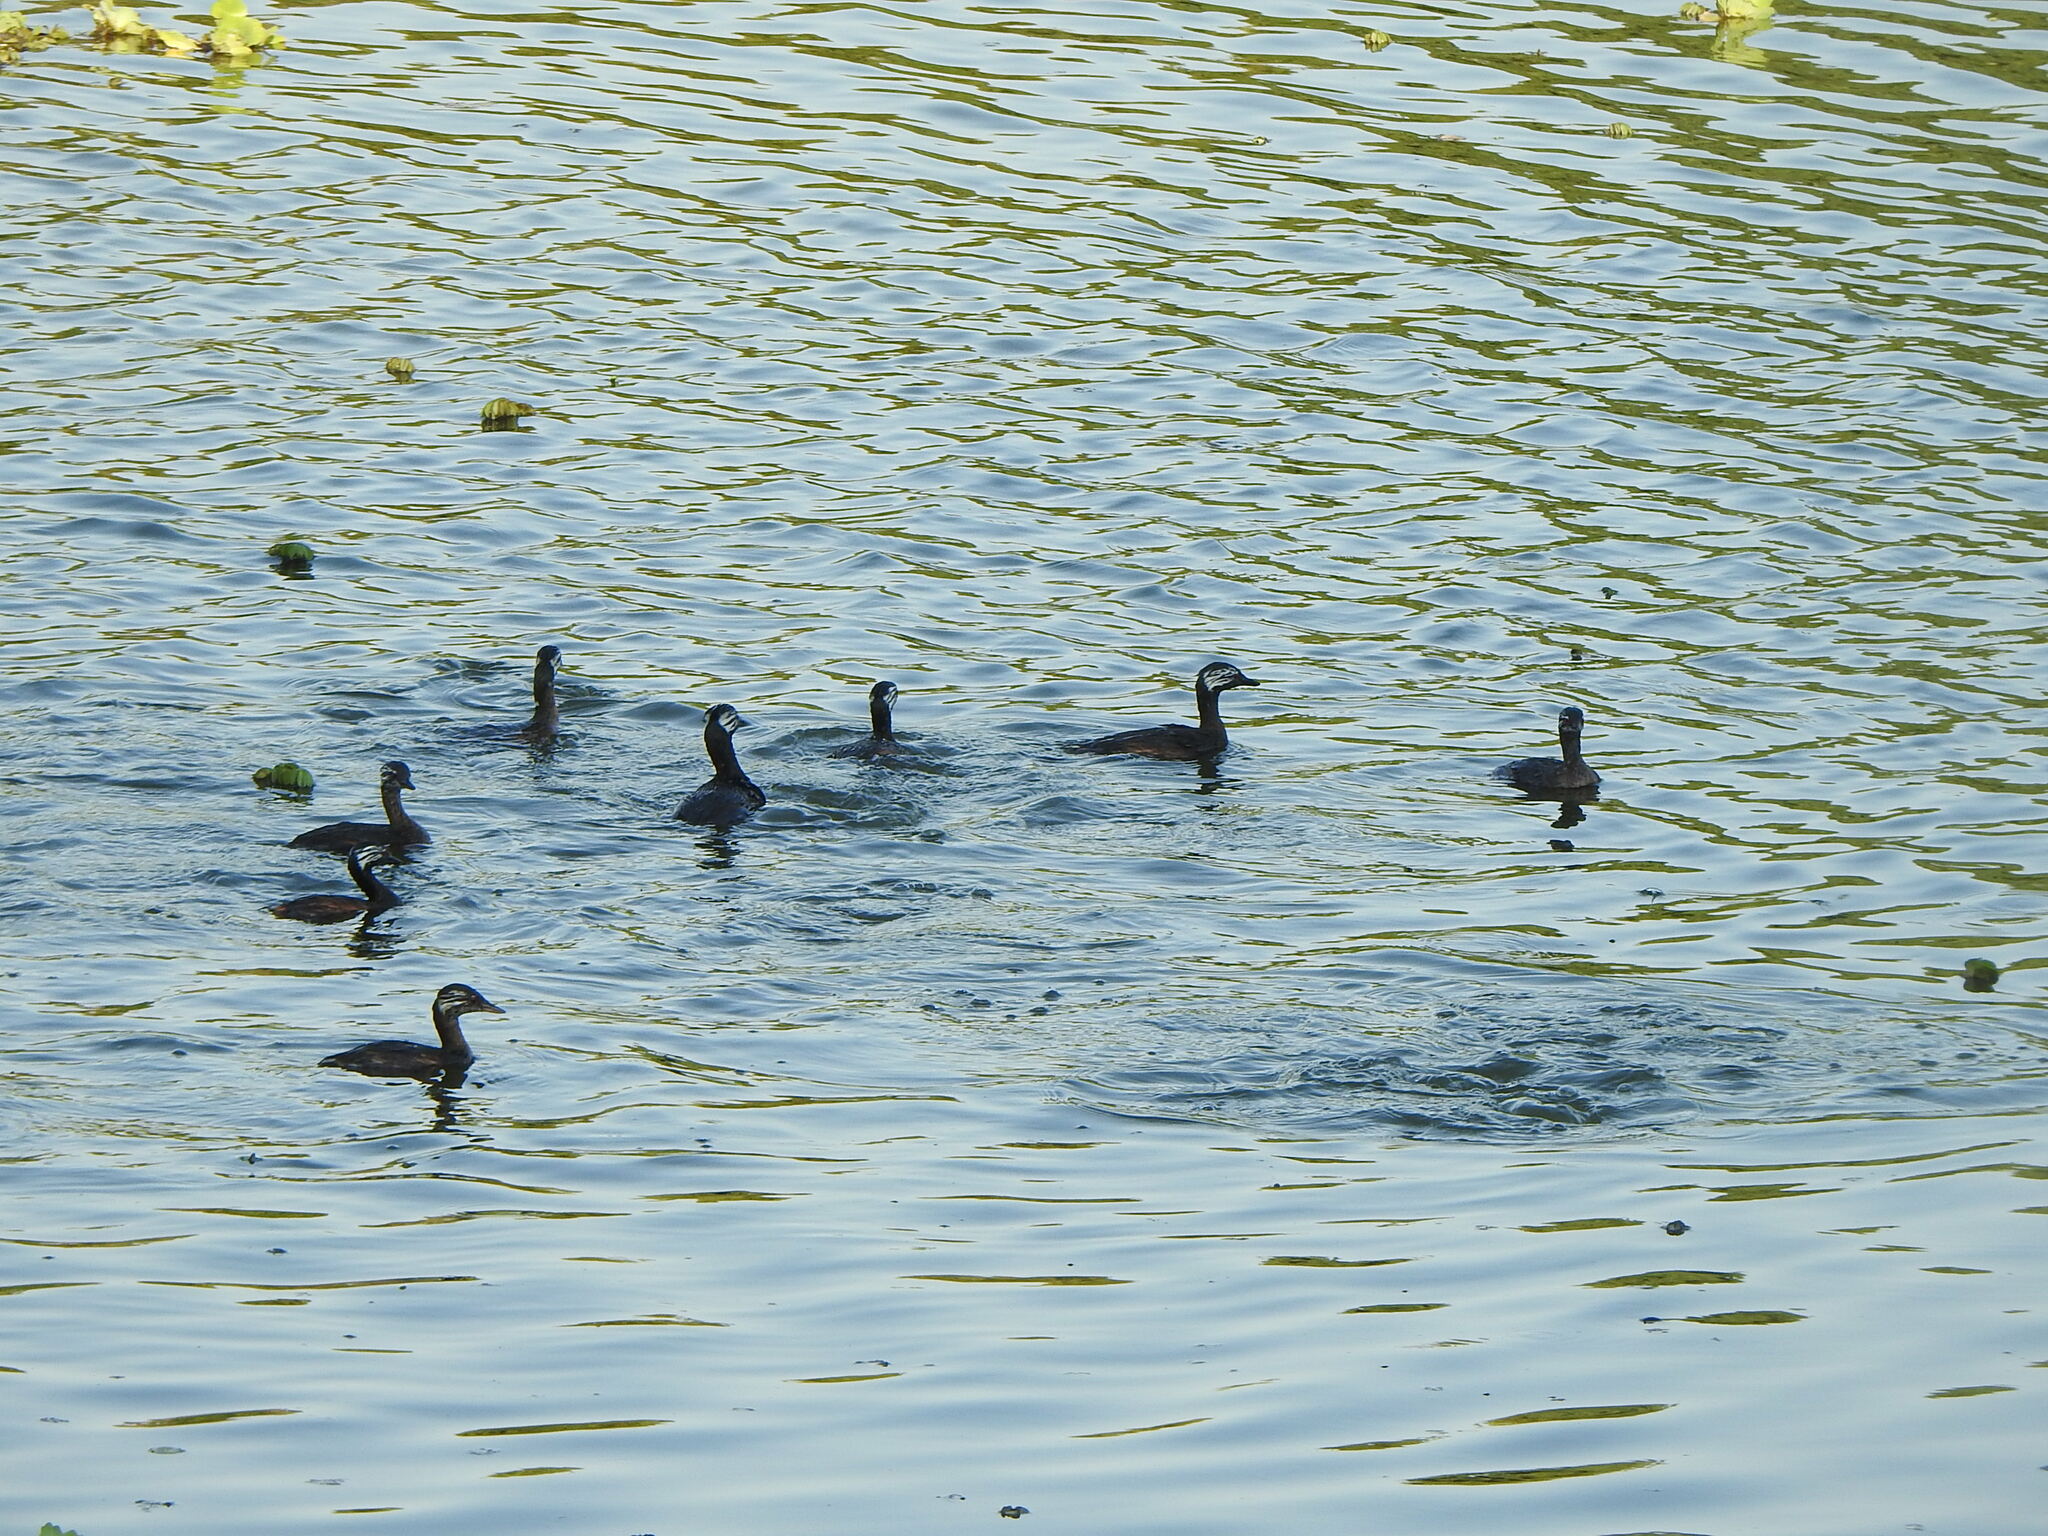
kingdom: Animalia
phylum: Chordata
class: Aves
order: Podicipediformes
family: Podicipedidae
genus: Rollandia
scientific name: Rollandia rolland
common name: White-tufted grebe
